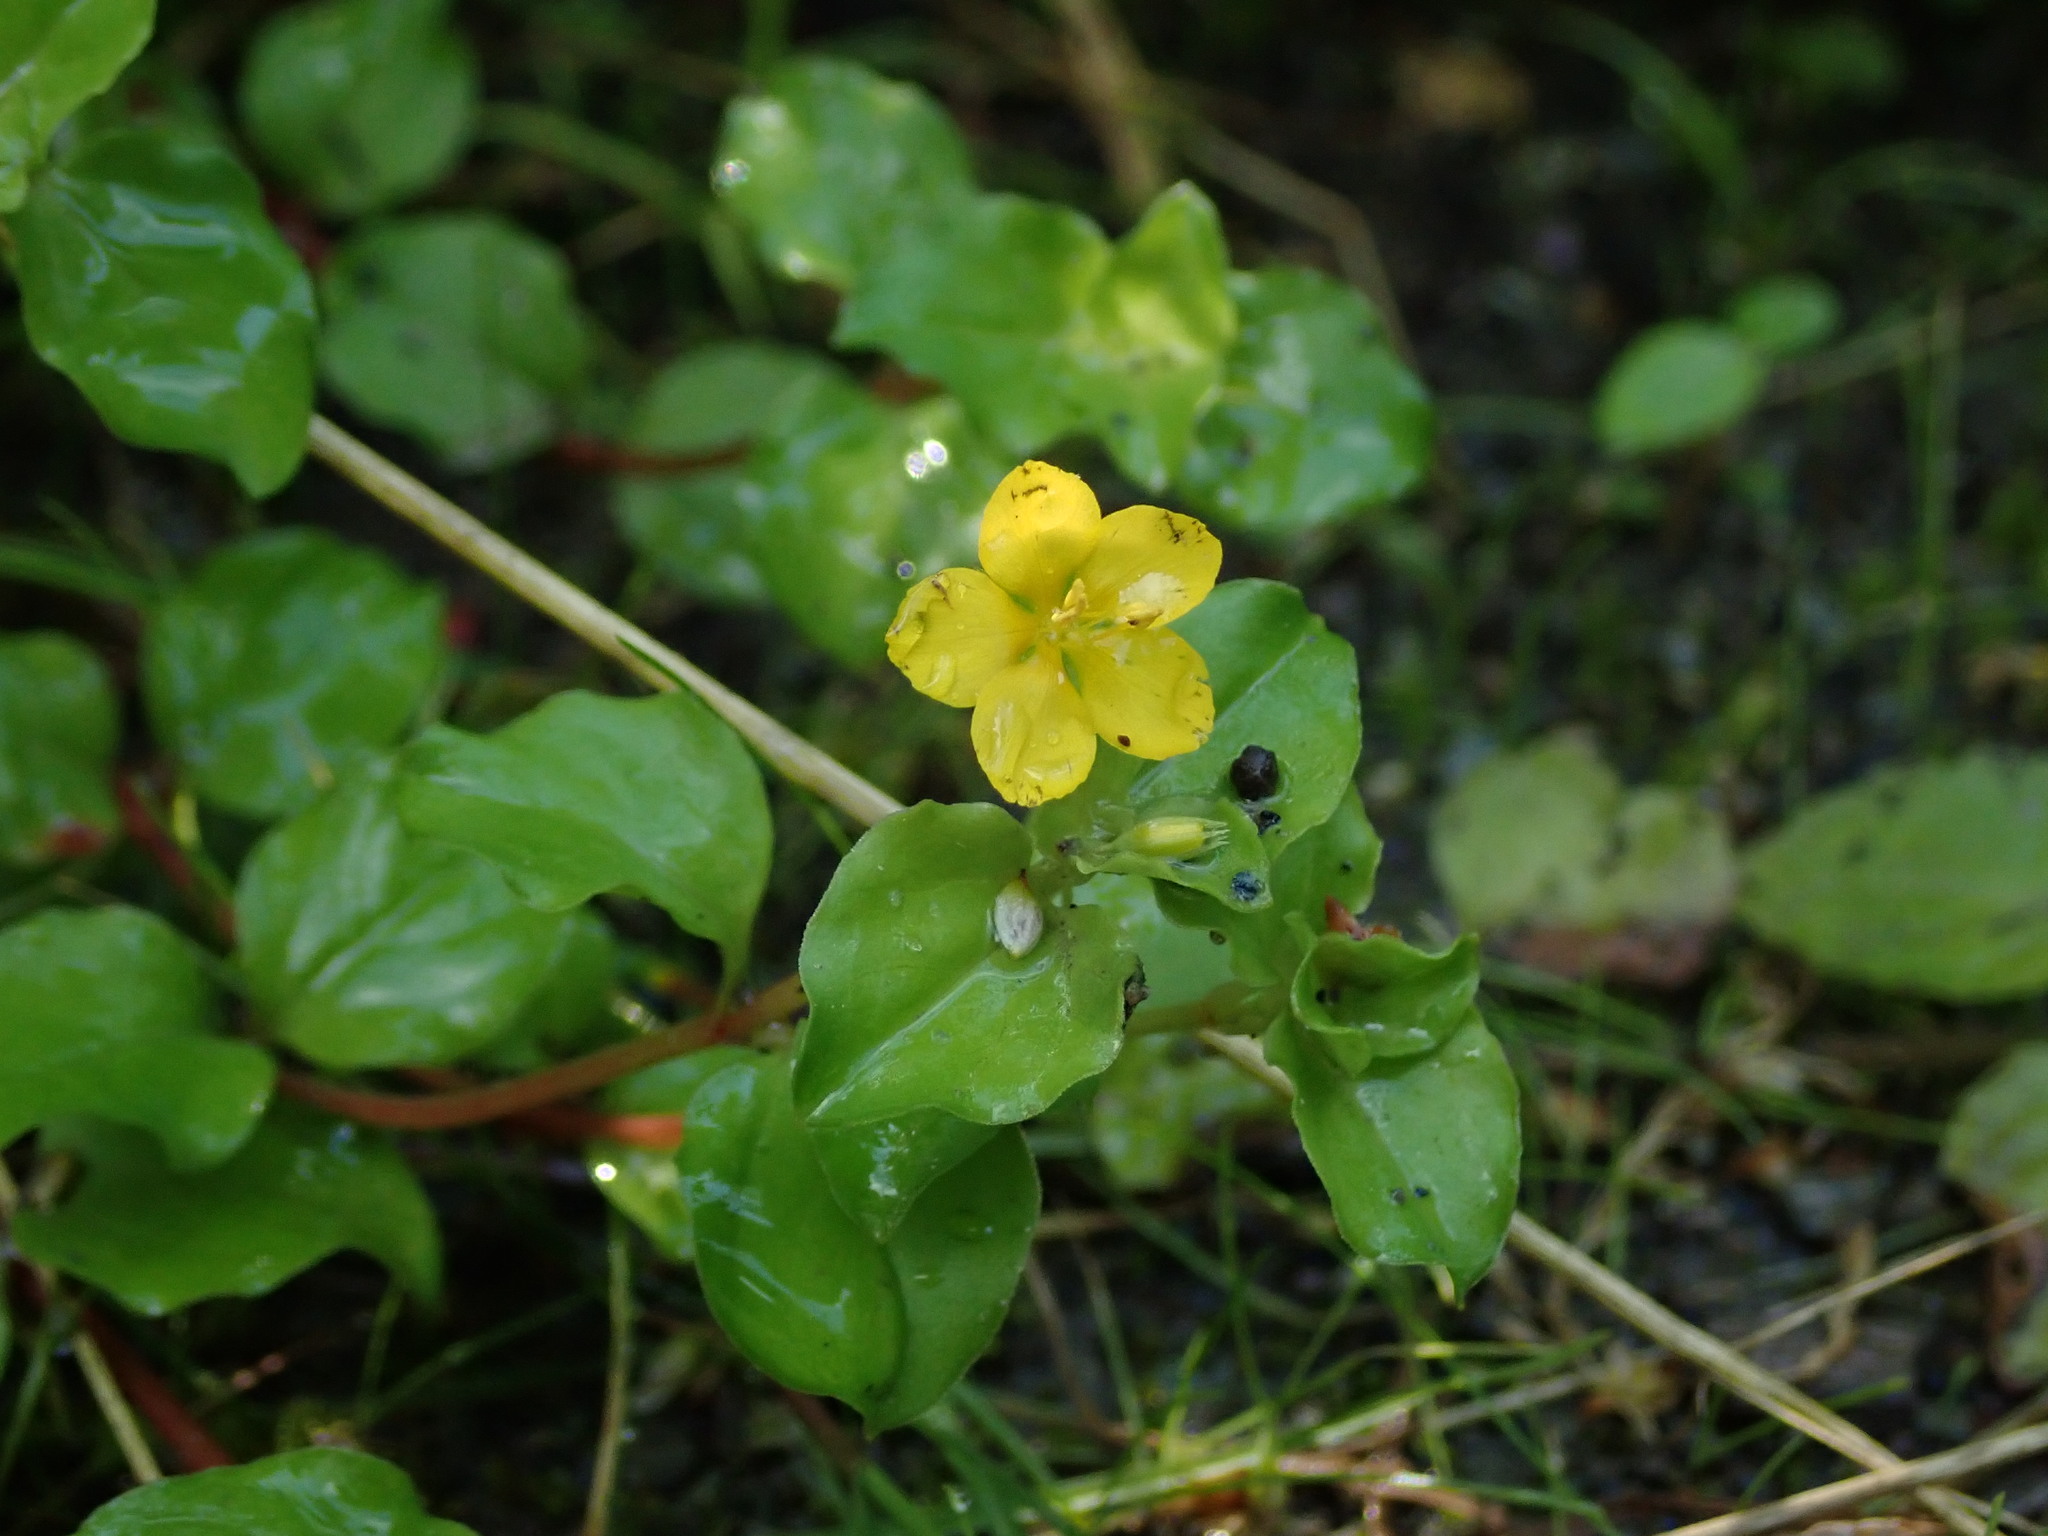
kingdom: Plantae
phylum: Tracheophyta
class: Magnoliopsida
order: Ericales
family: Primulaceae
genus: Lysimachia
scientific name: Lysimachia nummularia
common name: Moneywort
